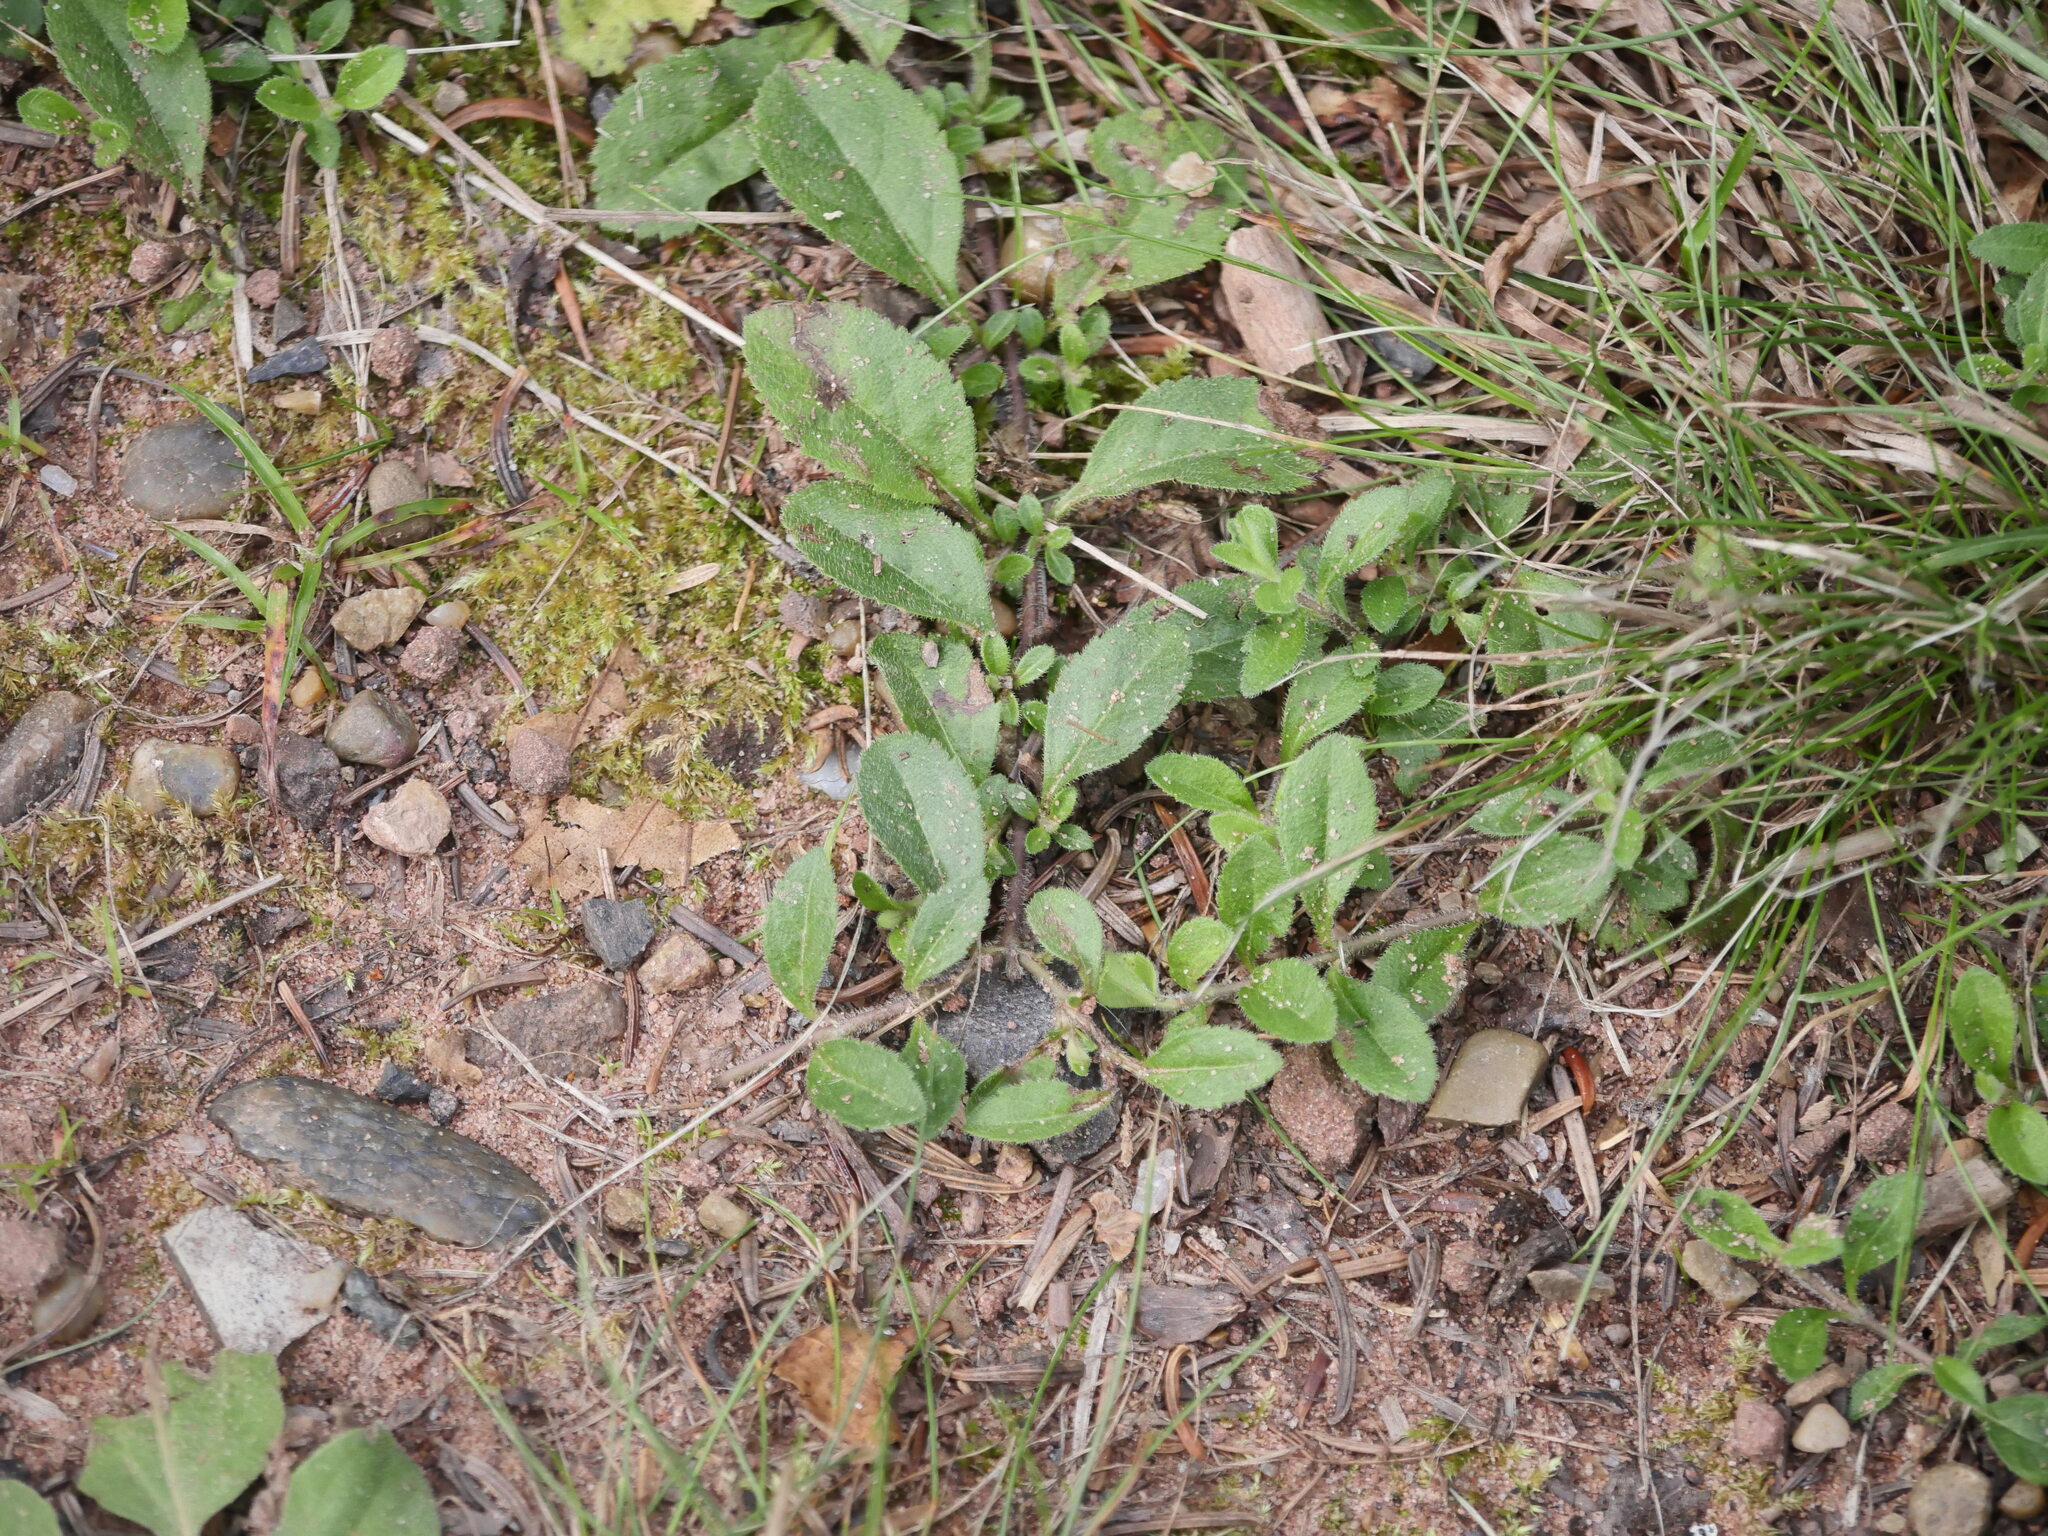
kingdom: Plantae
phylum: Tracheophyta
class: Magnoliopsida
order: Lamiales
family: Plantaginaceae
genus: Veronica
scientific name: Veronica officinalis
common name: Common speedwell
